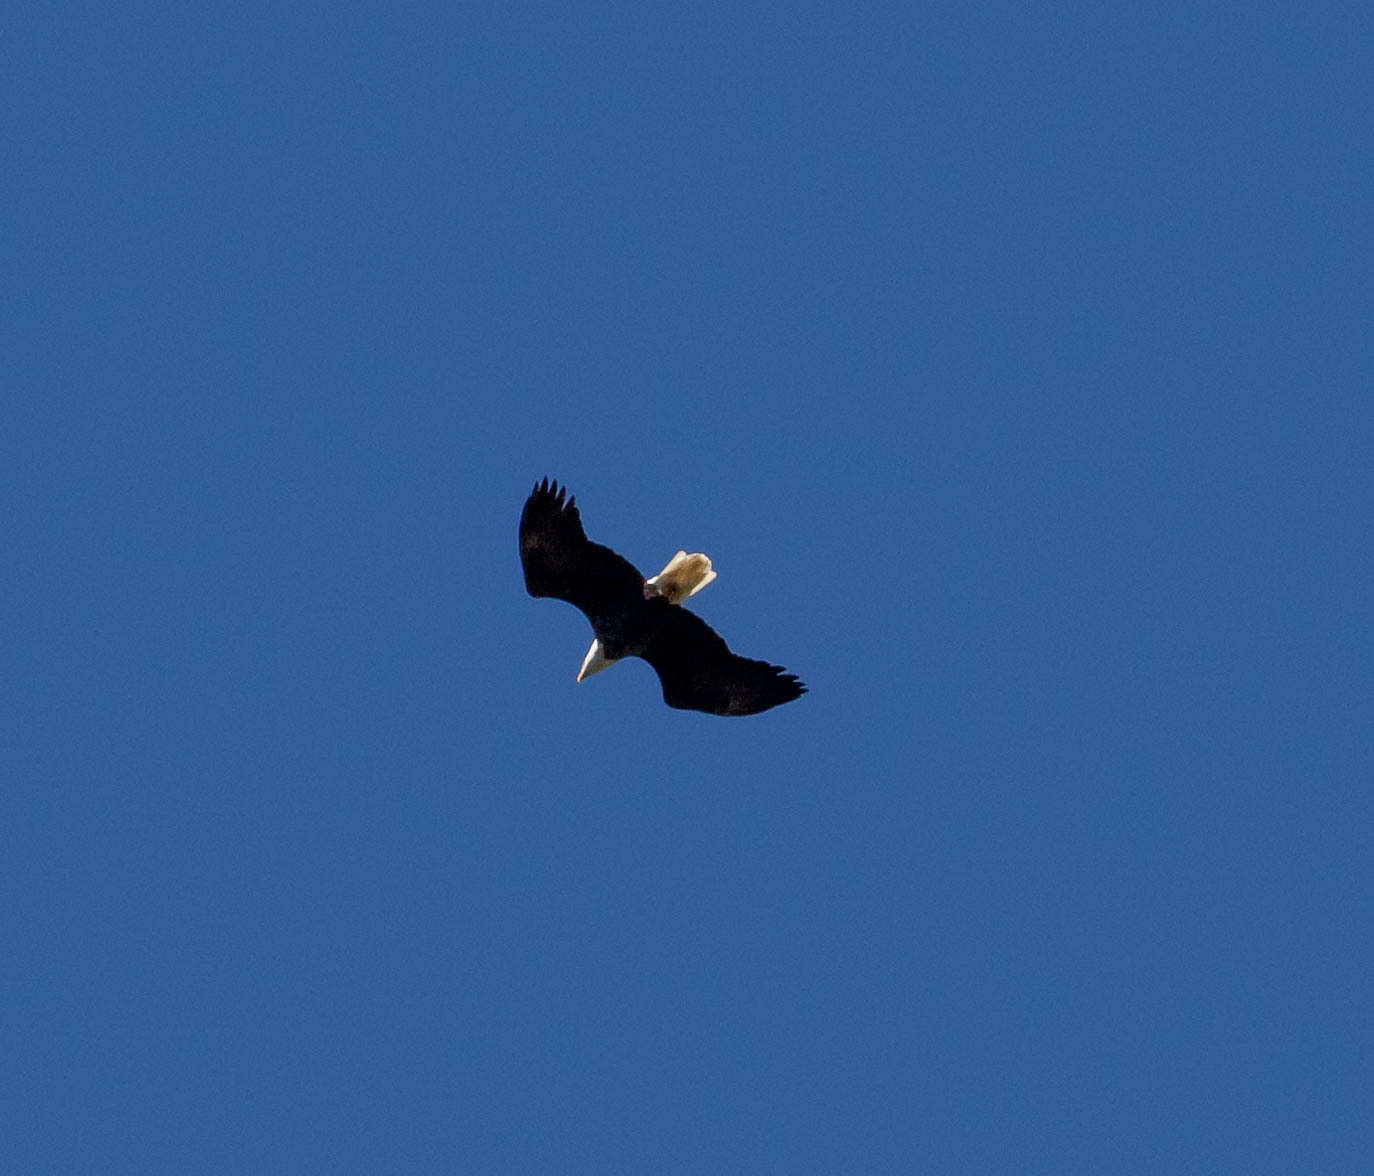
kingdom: Animalia
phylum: Chordata
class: Aves
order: Accipitriformes
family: Accipitridae
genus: Haliaeetus
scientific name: Haliaeetus leucocephalus
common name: Bald eagle
